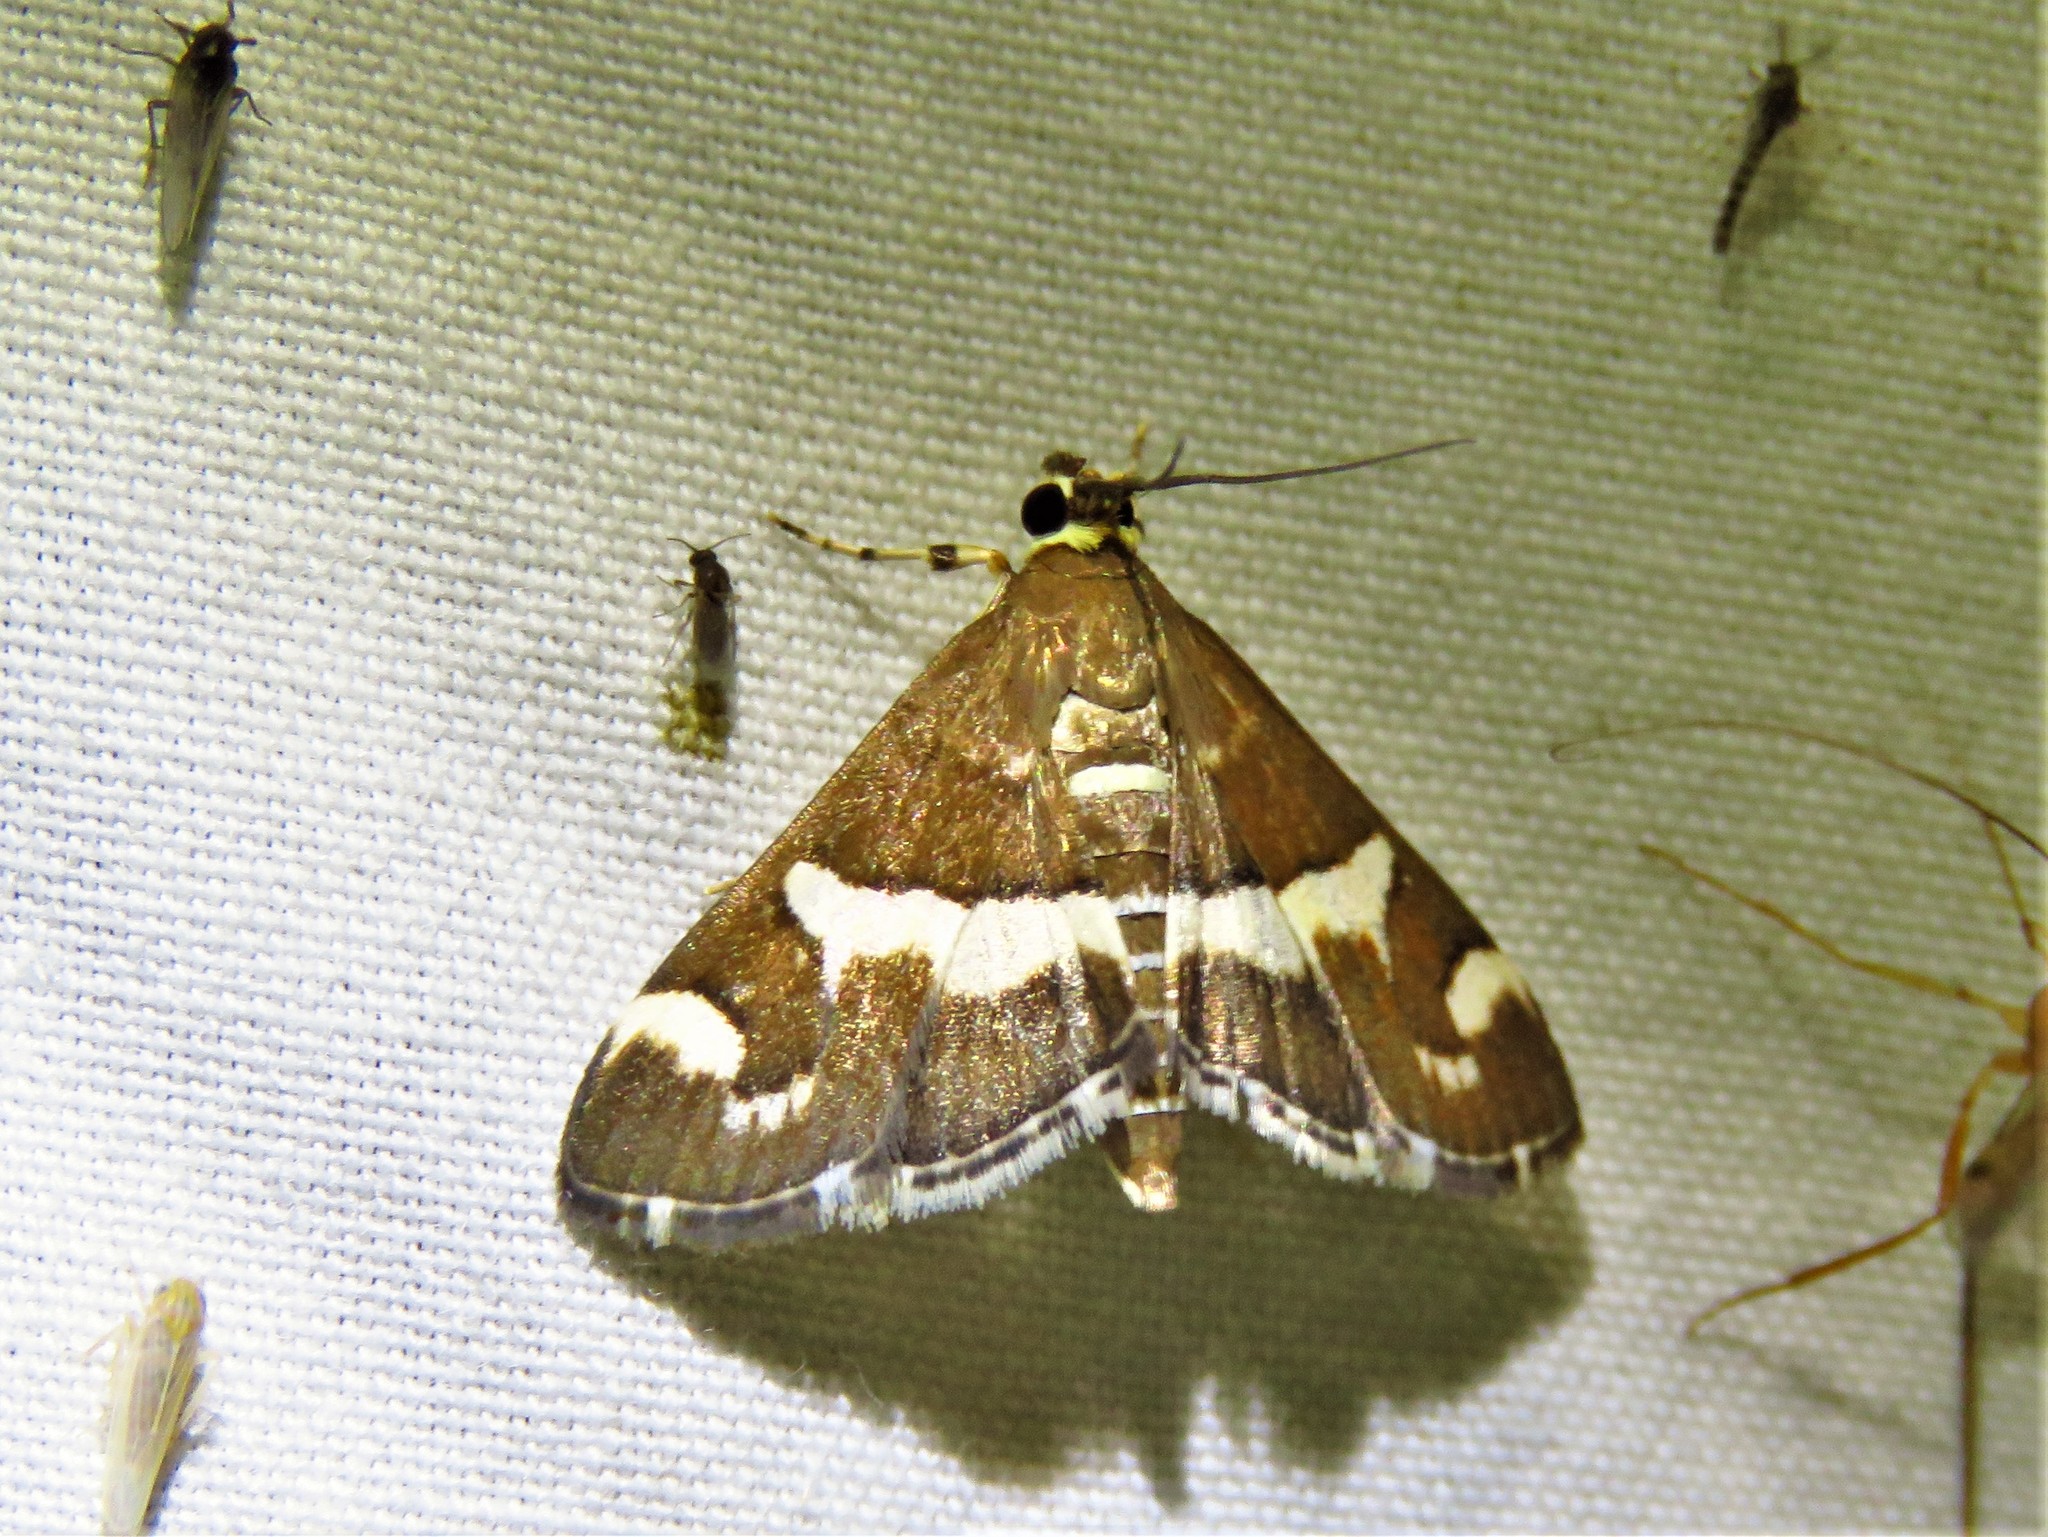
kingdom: Animalia
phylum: Arthropoda
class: Insecta
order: Lepidoptera
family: Crambidae
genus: Spoladea
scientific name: Spoladea recurvalis
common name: Beet webworm moth
